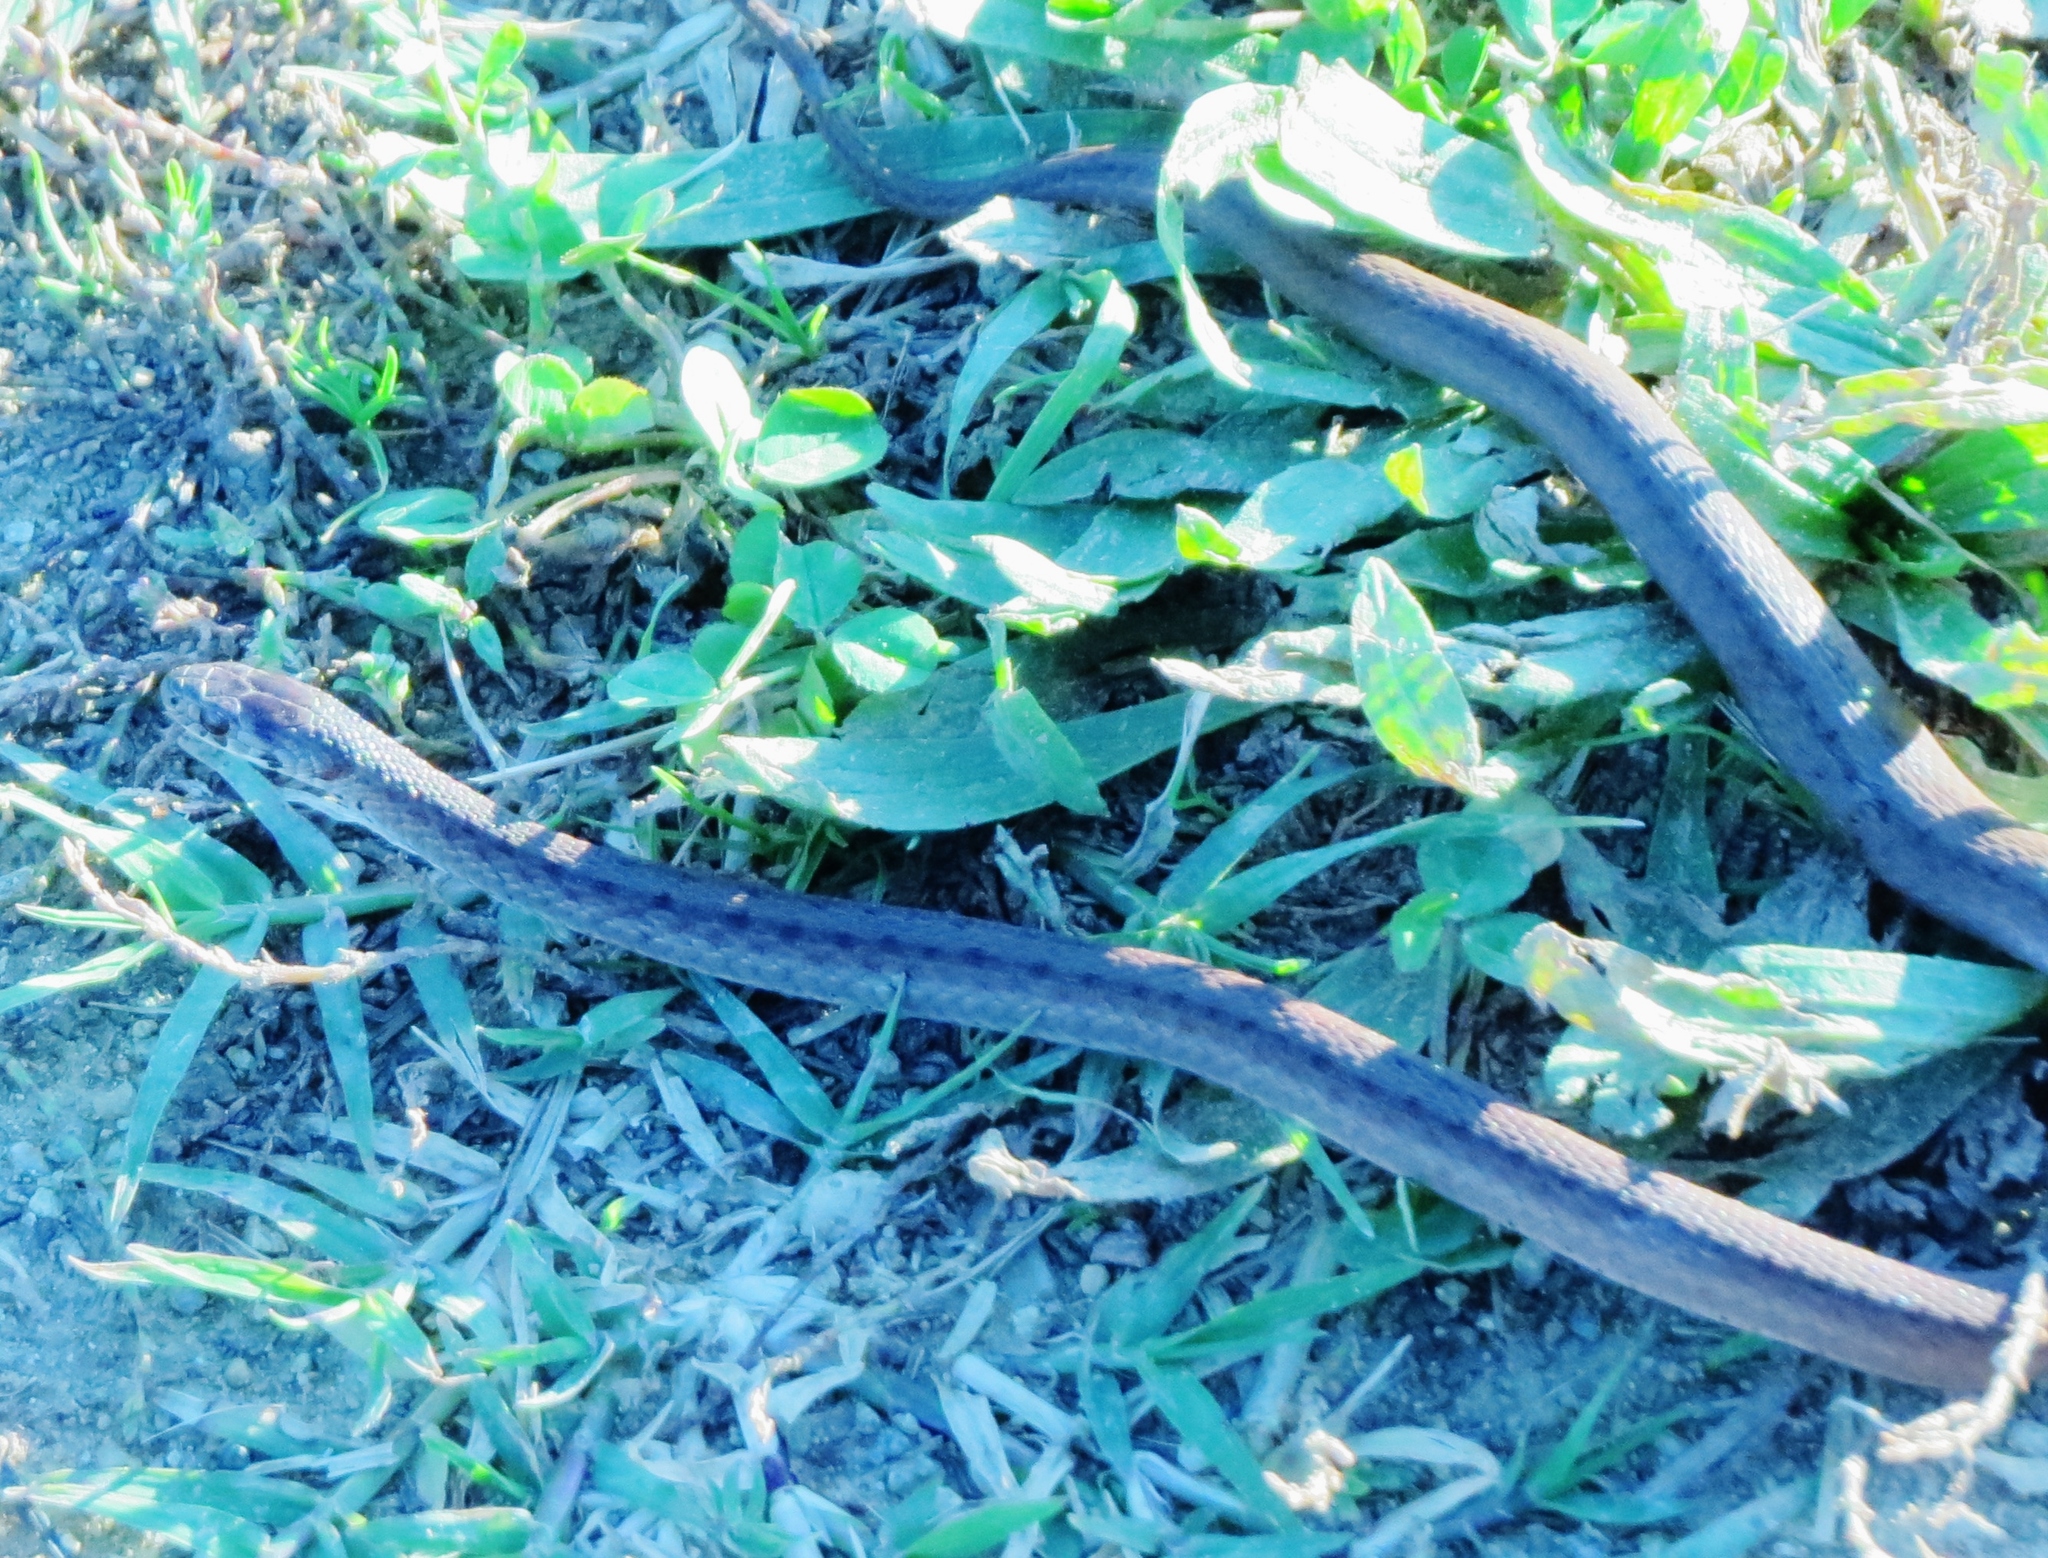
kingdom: Animalia
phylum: Chordata
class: Squamata
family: Colubridae
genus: Storeria
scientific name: Storeria dekayi
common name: (dekay’s) brown snake
